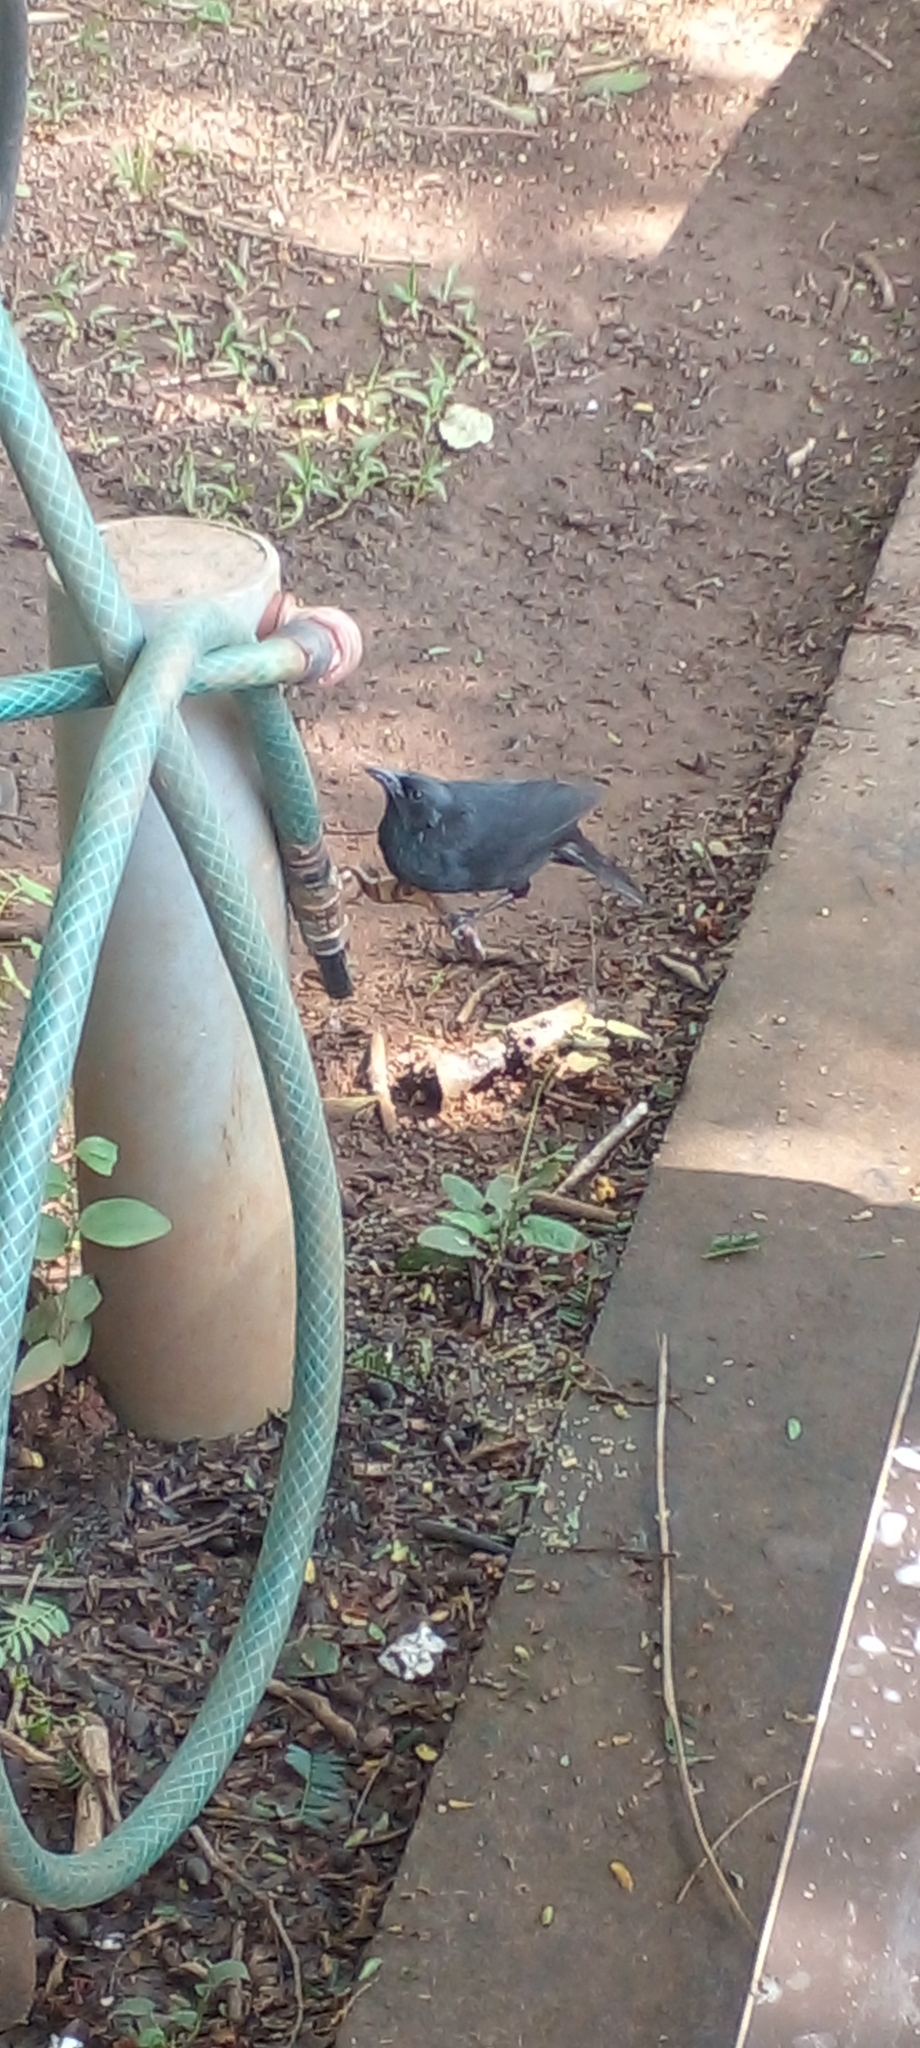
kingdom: Animalia
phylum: Chordata
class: Aves
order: Passeriformes
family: Icteridae
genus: Gnorimopsar
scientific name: Gnorimopsar chopi
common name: Chopi blackbird
